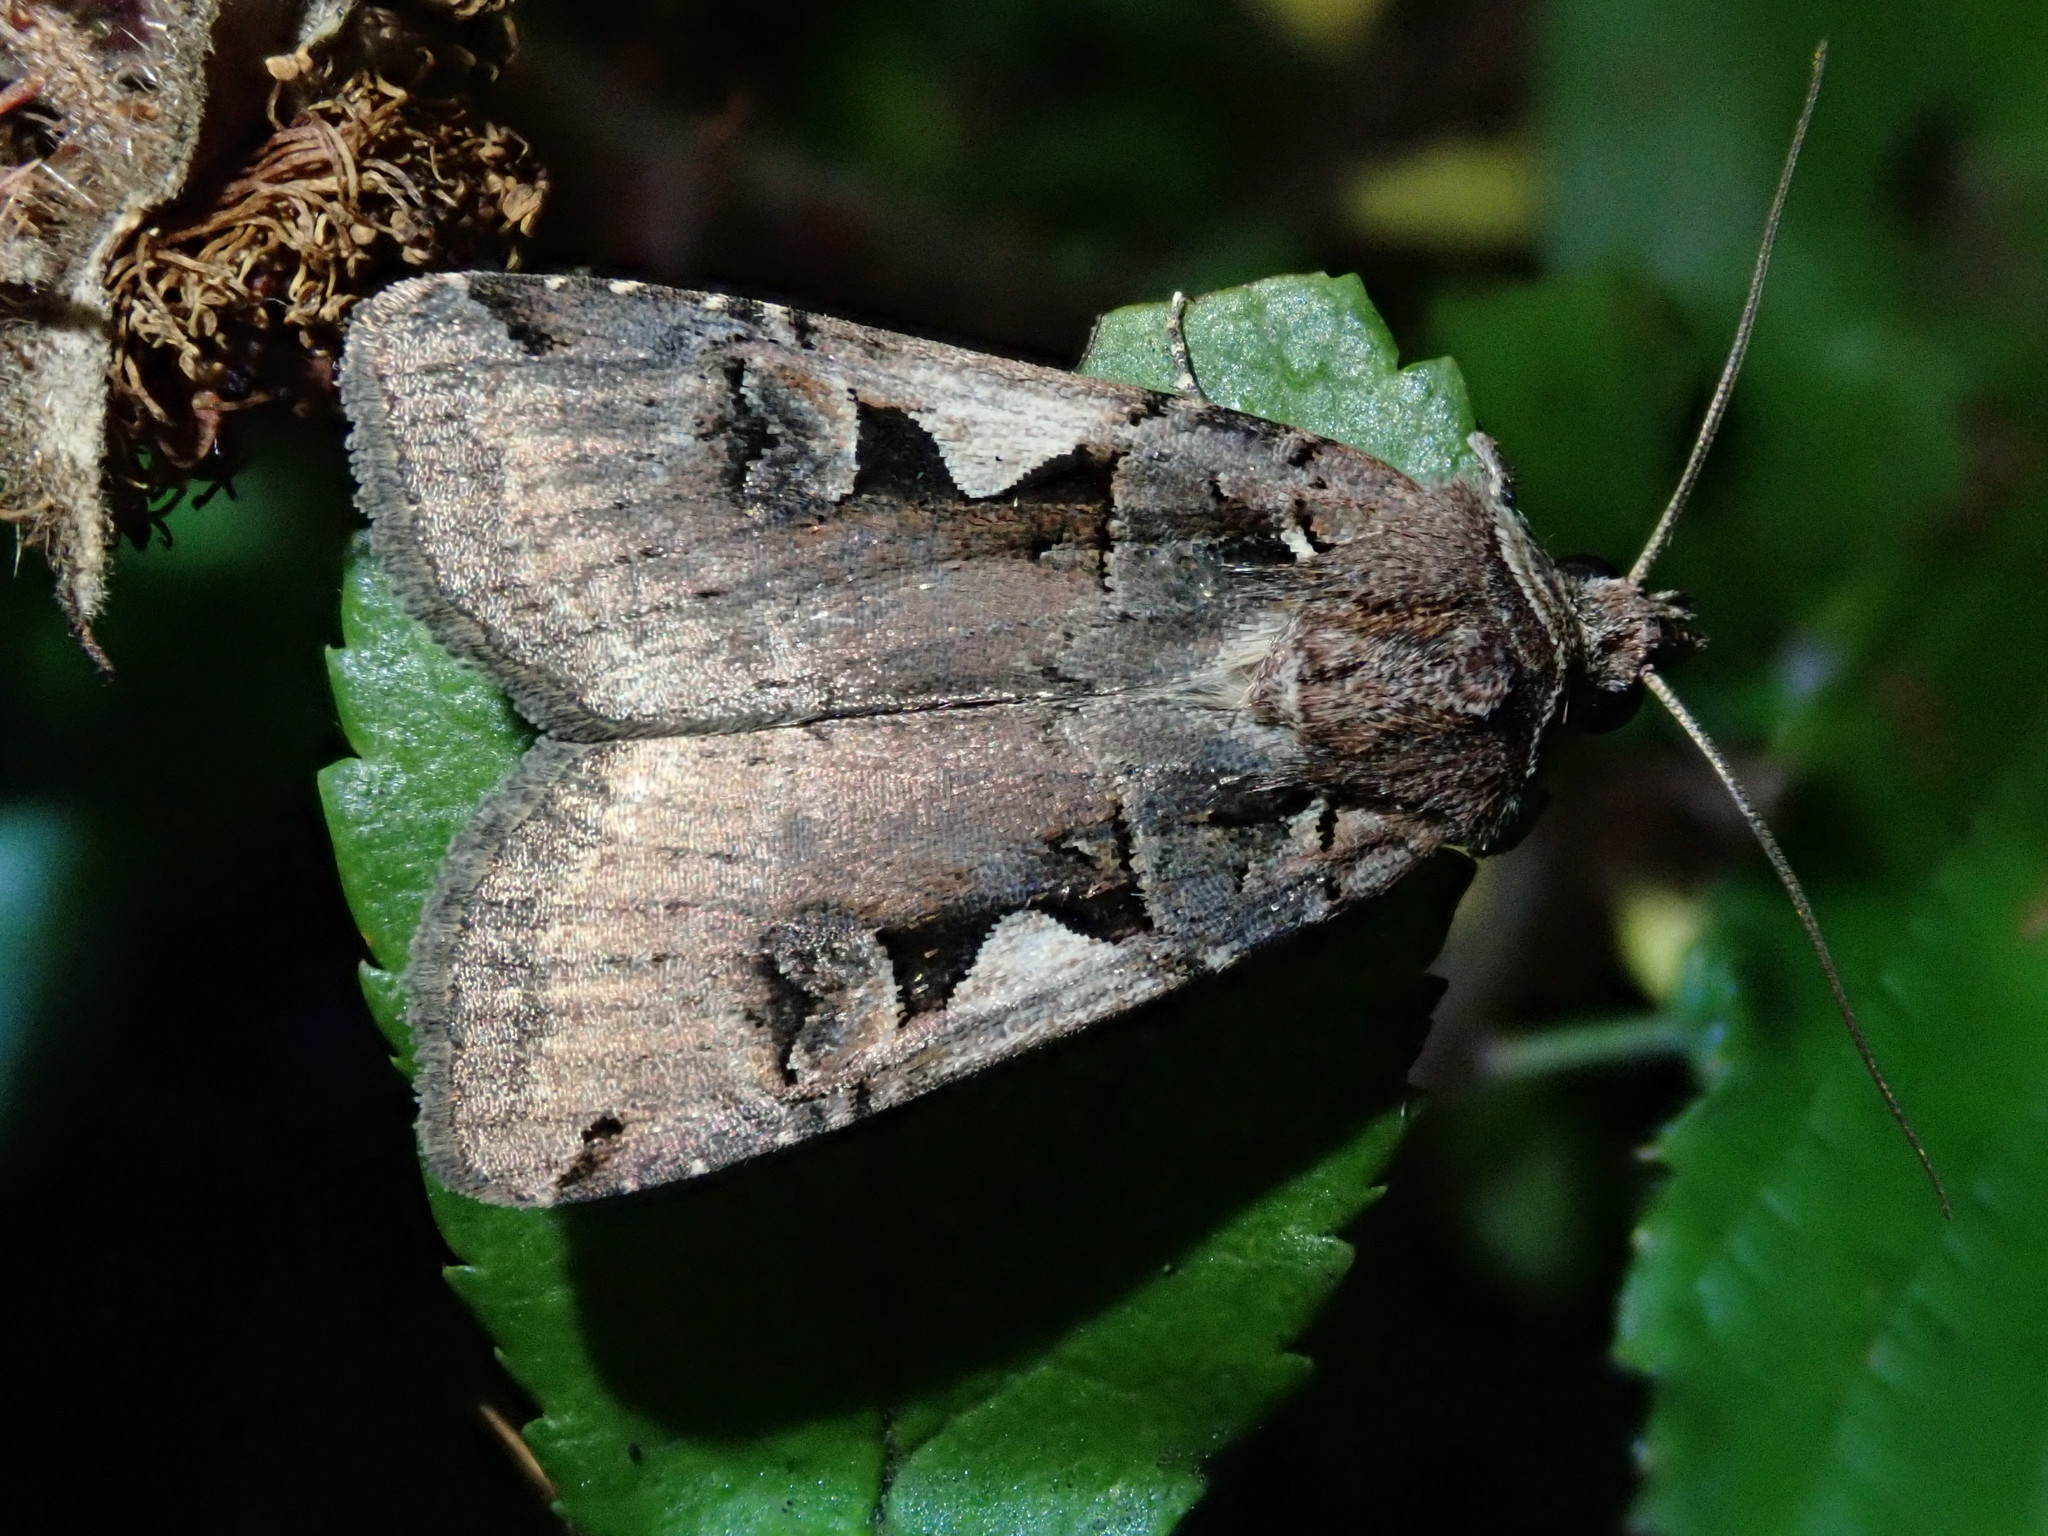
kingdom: Animalia
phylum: Arthropoda
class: Insecta
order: Lepidoptera
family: Noctuidae
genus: Xestia
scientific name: Xestia c-nigrum
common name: Setaceous hebrew character
